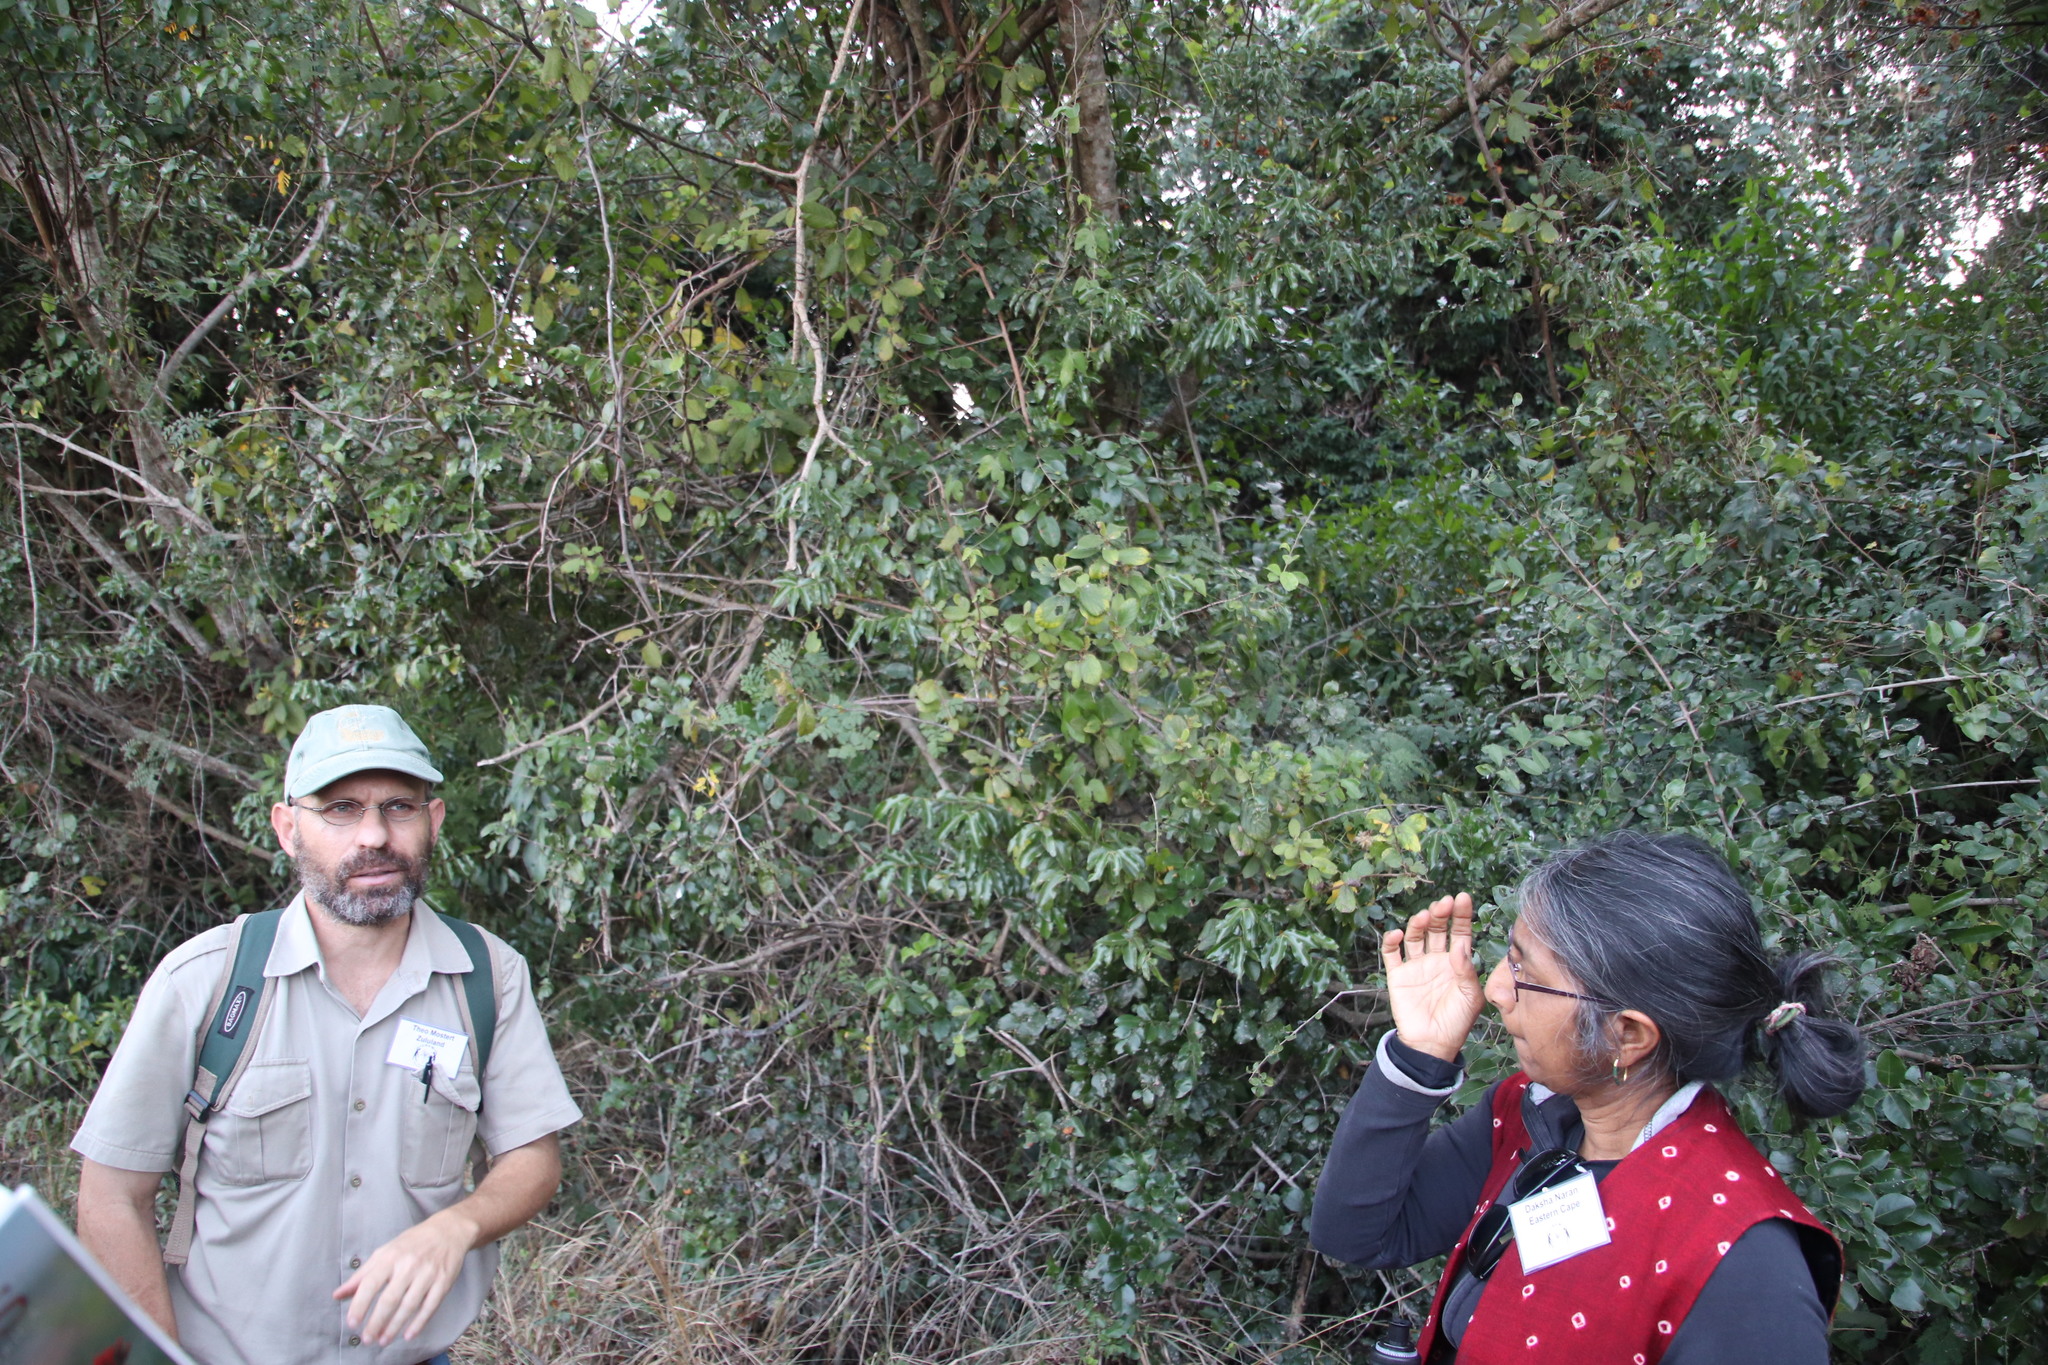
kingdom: Plantae
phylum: Tracheophyta
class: Magnoliopsida
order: Ericales
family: Ebenaceae
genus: Diospyros
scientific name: Diospyros villosa
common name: Hairy star-apple
